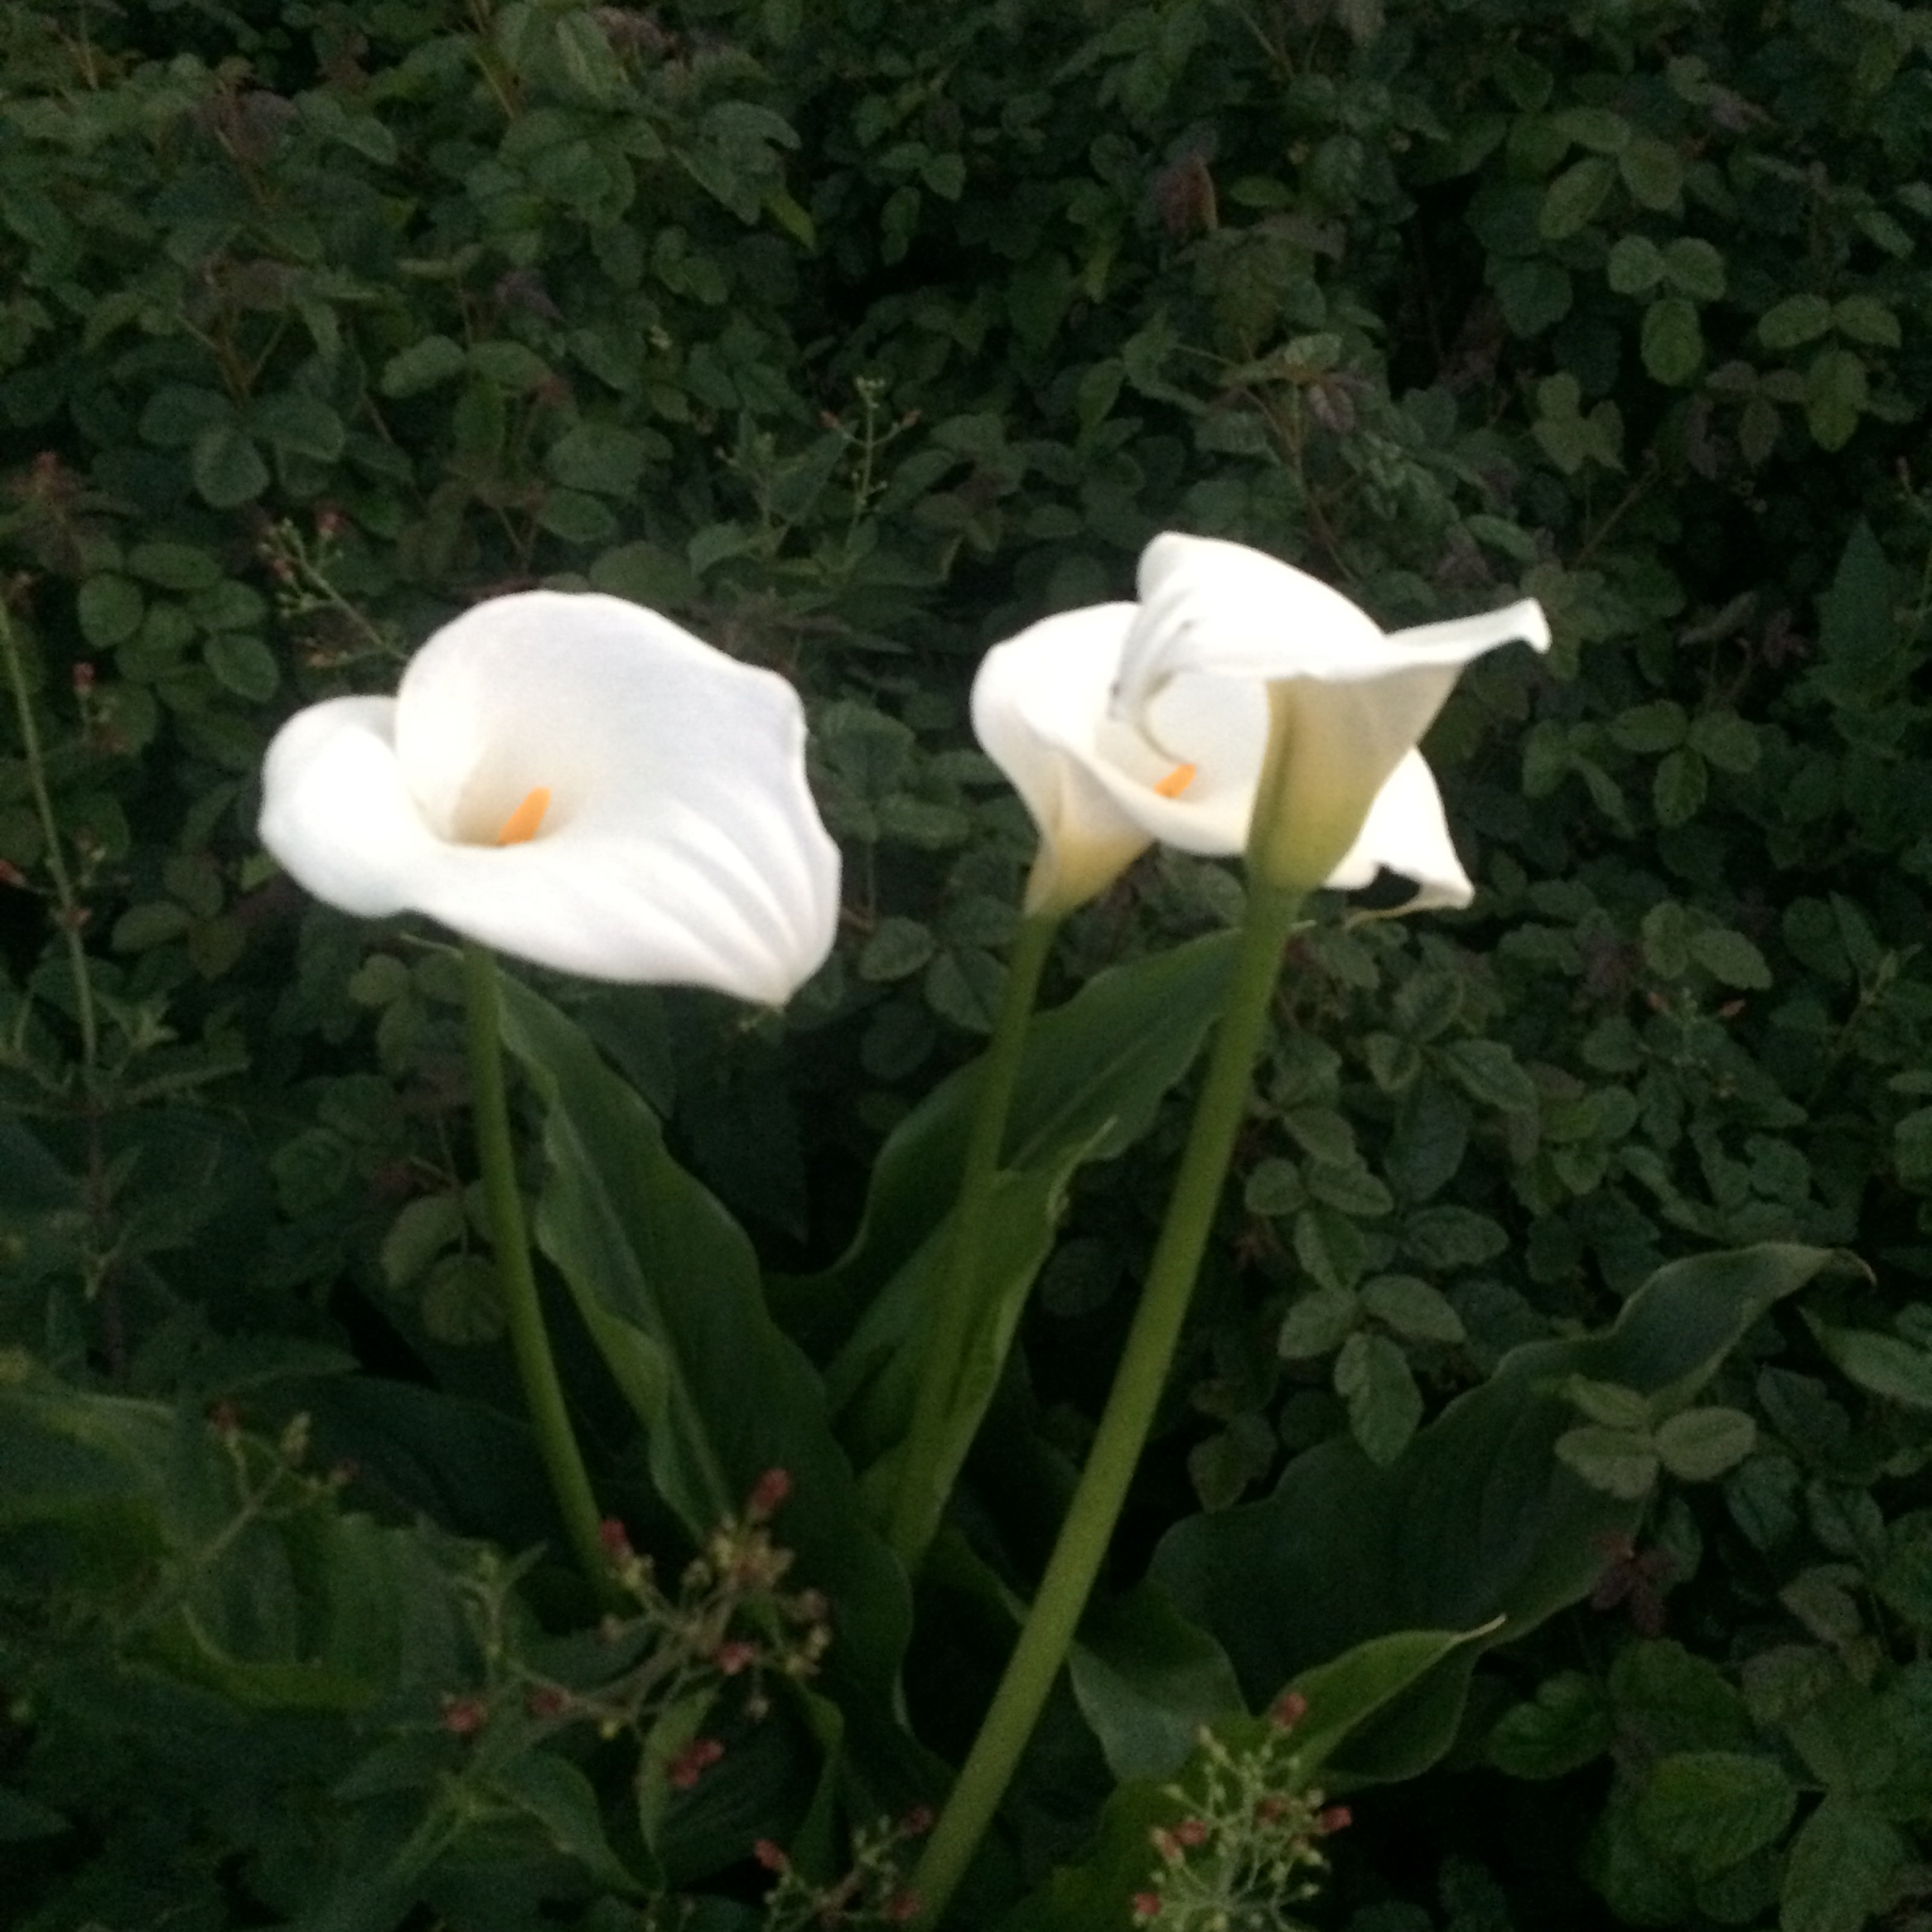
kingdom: Plantae
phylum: Tracheophyta
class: Liliopsida
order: Alismatales
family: Araceae
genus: Zantedeschia
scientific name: Zantedeschia aethiopica
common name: Altar-lily
